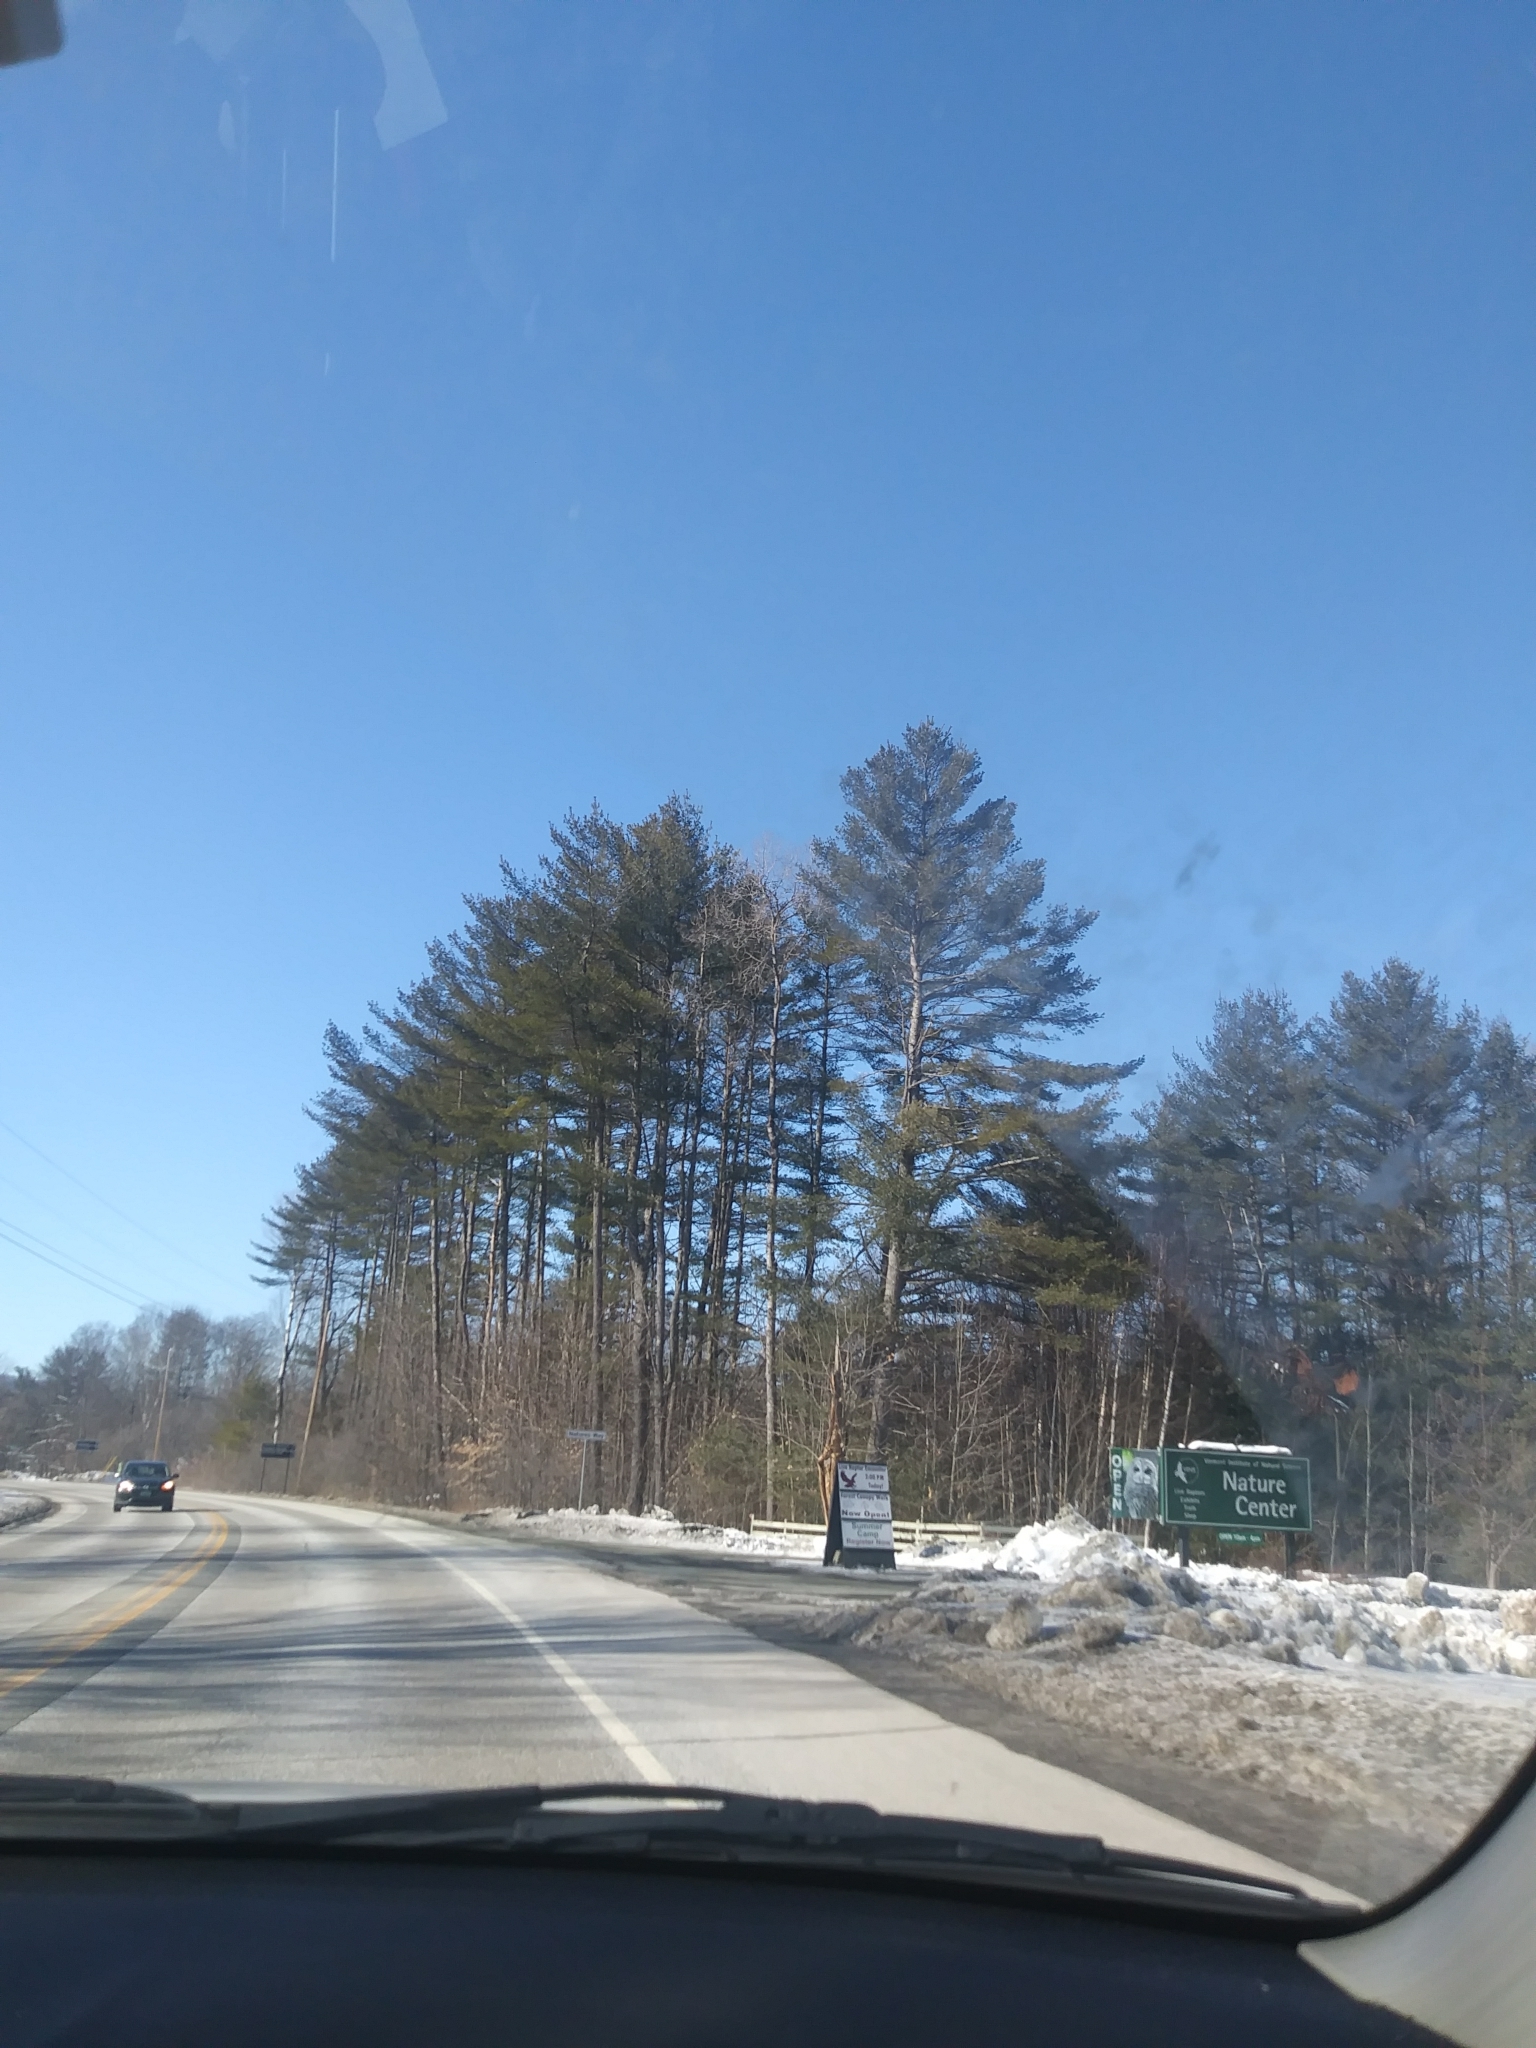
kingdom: Plantae
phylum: Tracheophyta
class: Pinopsida
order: Pinales
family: Pinaceae
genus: Pinus
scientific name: Pinus strobus
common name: Weymouth pine
